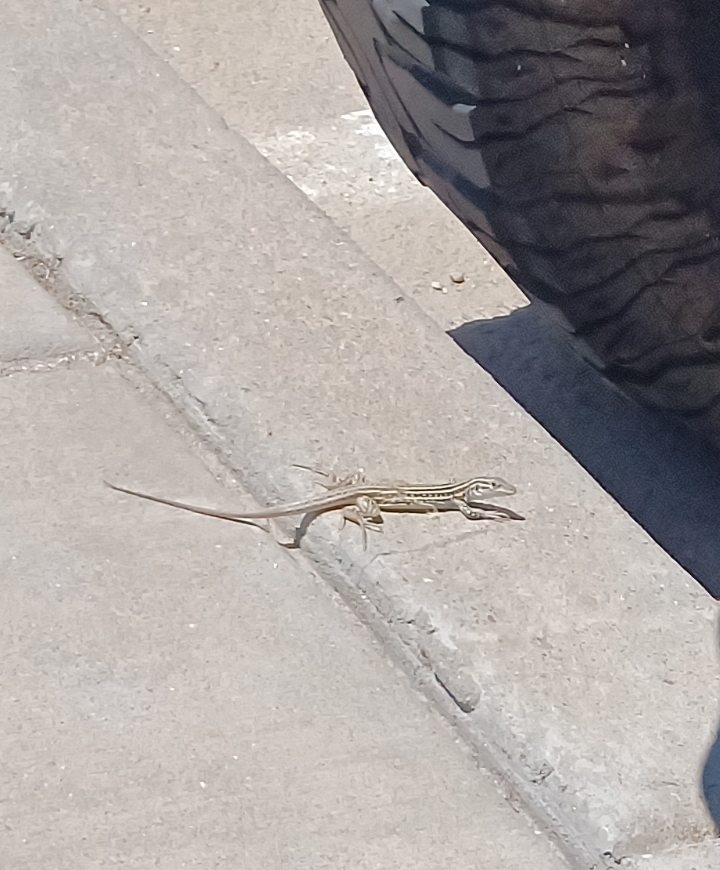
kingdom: Animalia
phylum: Chordata
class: Squamata
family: Teiidae
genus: Aspidoscelis
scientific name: Aspidoscelis neotesselatus
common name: Colorado checkered whiptail
